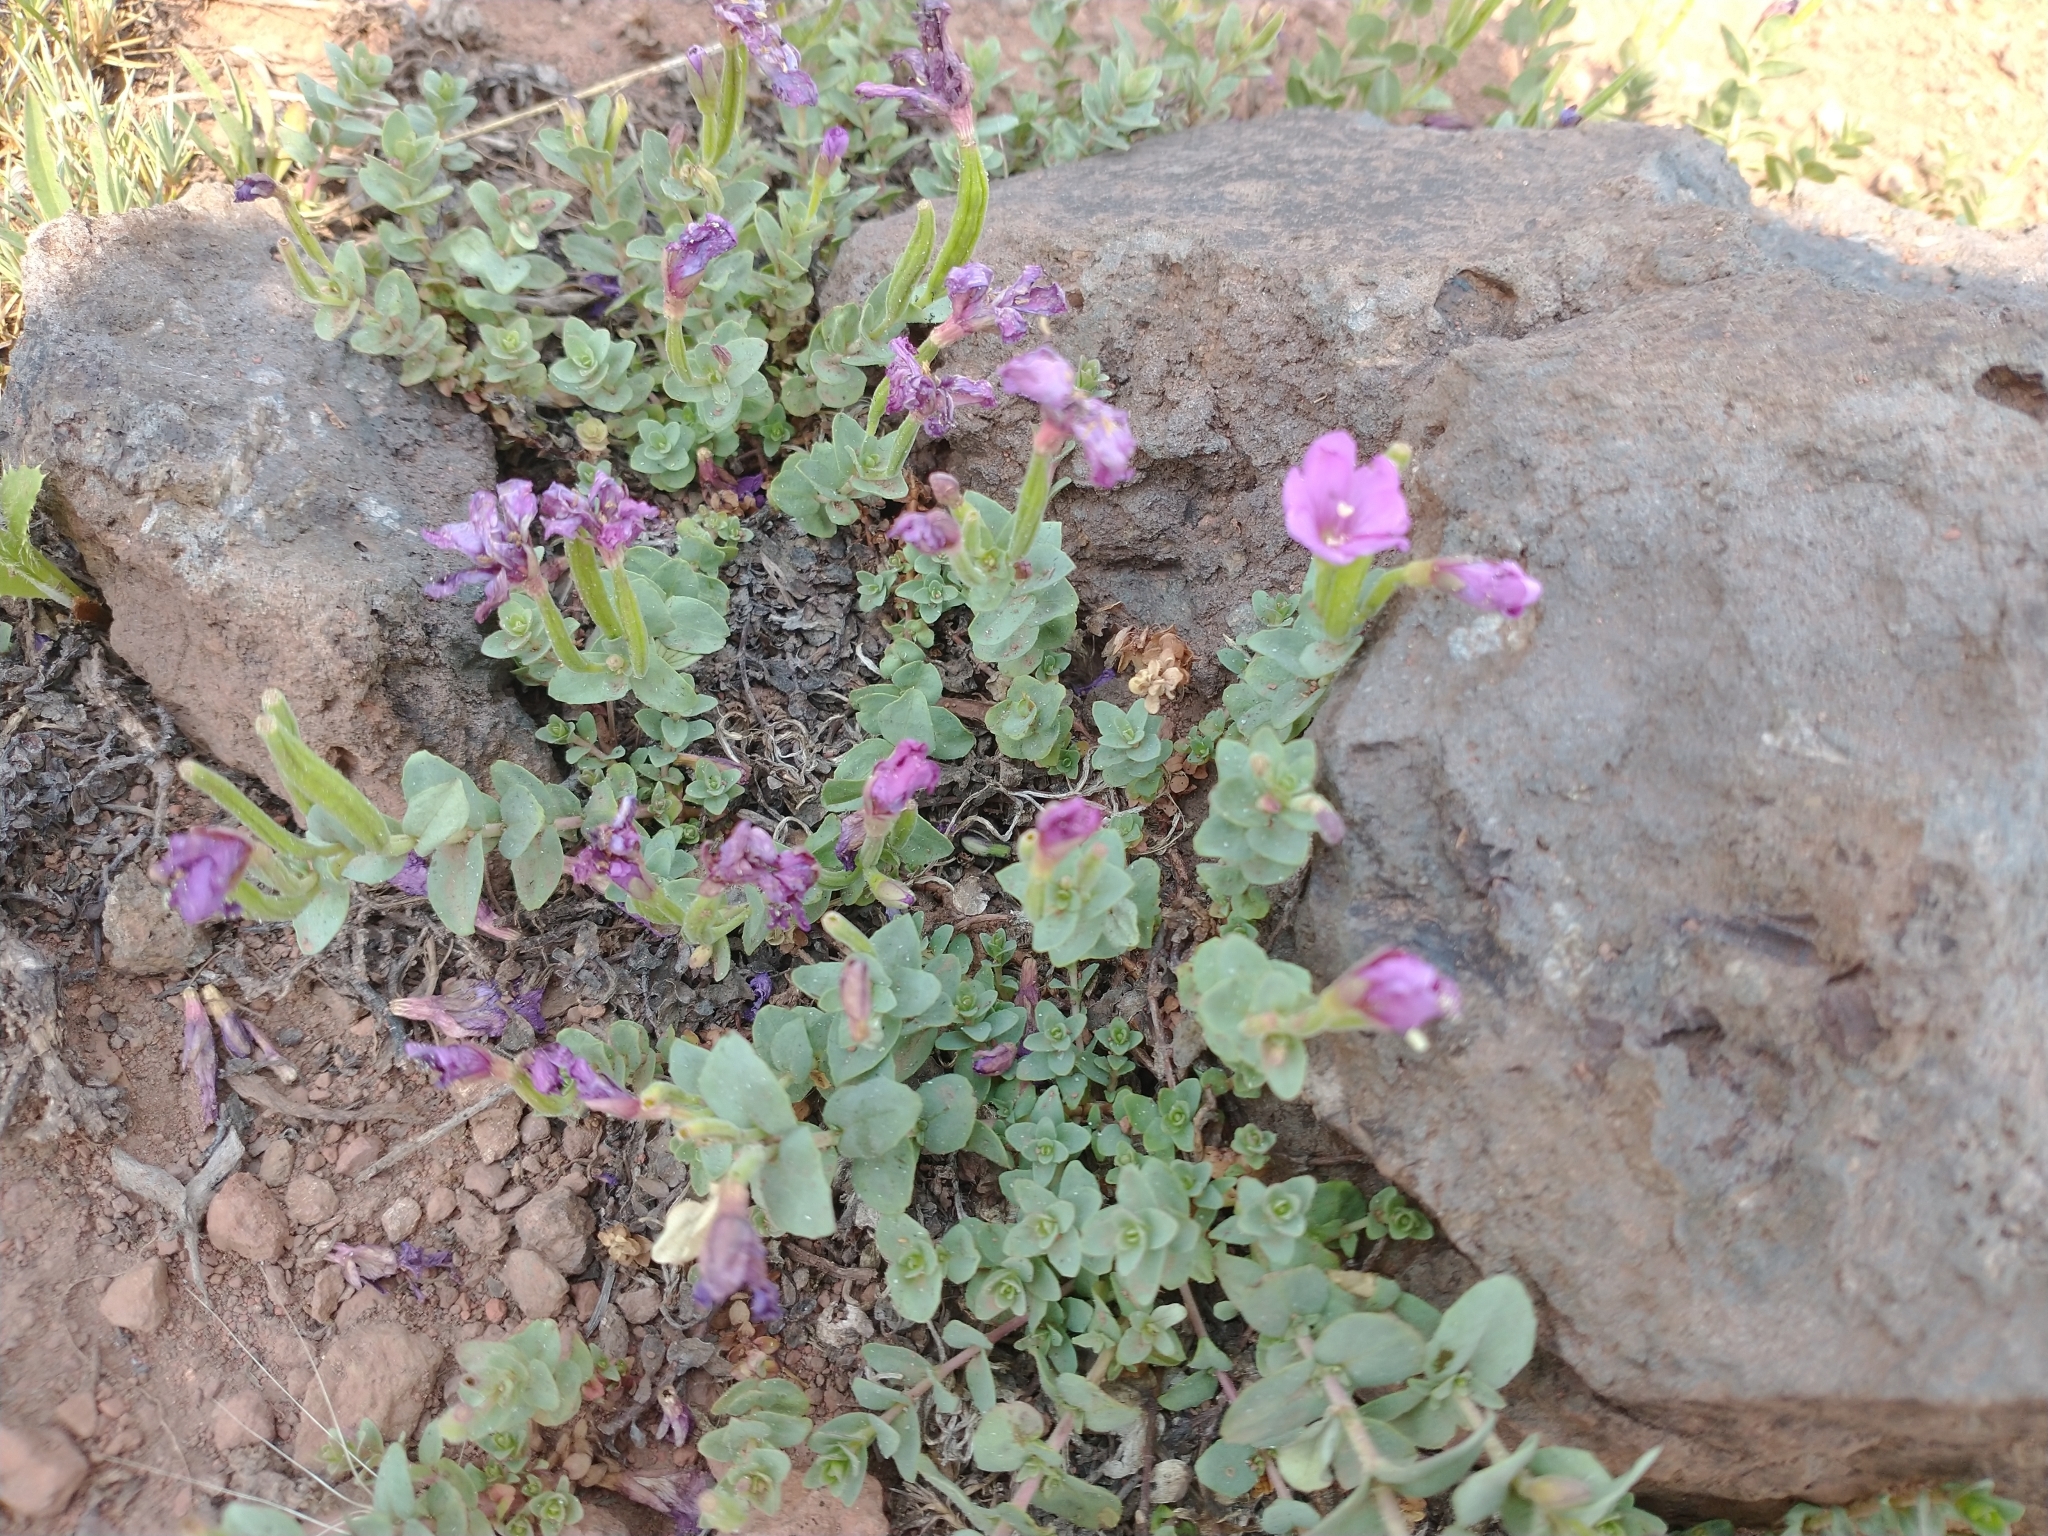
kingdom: Plantae
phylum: Tracheophyta
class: Magnoliopsida
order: Myrtales
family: Onagraceae
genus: Epilobium
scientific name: Epilobium obcordatum
